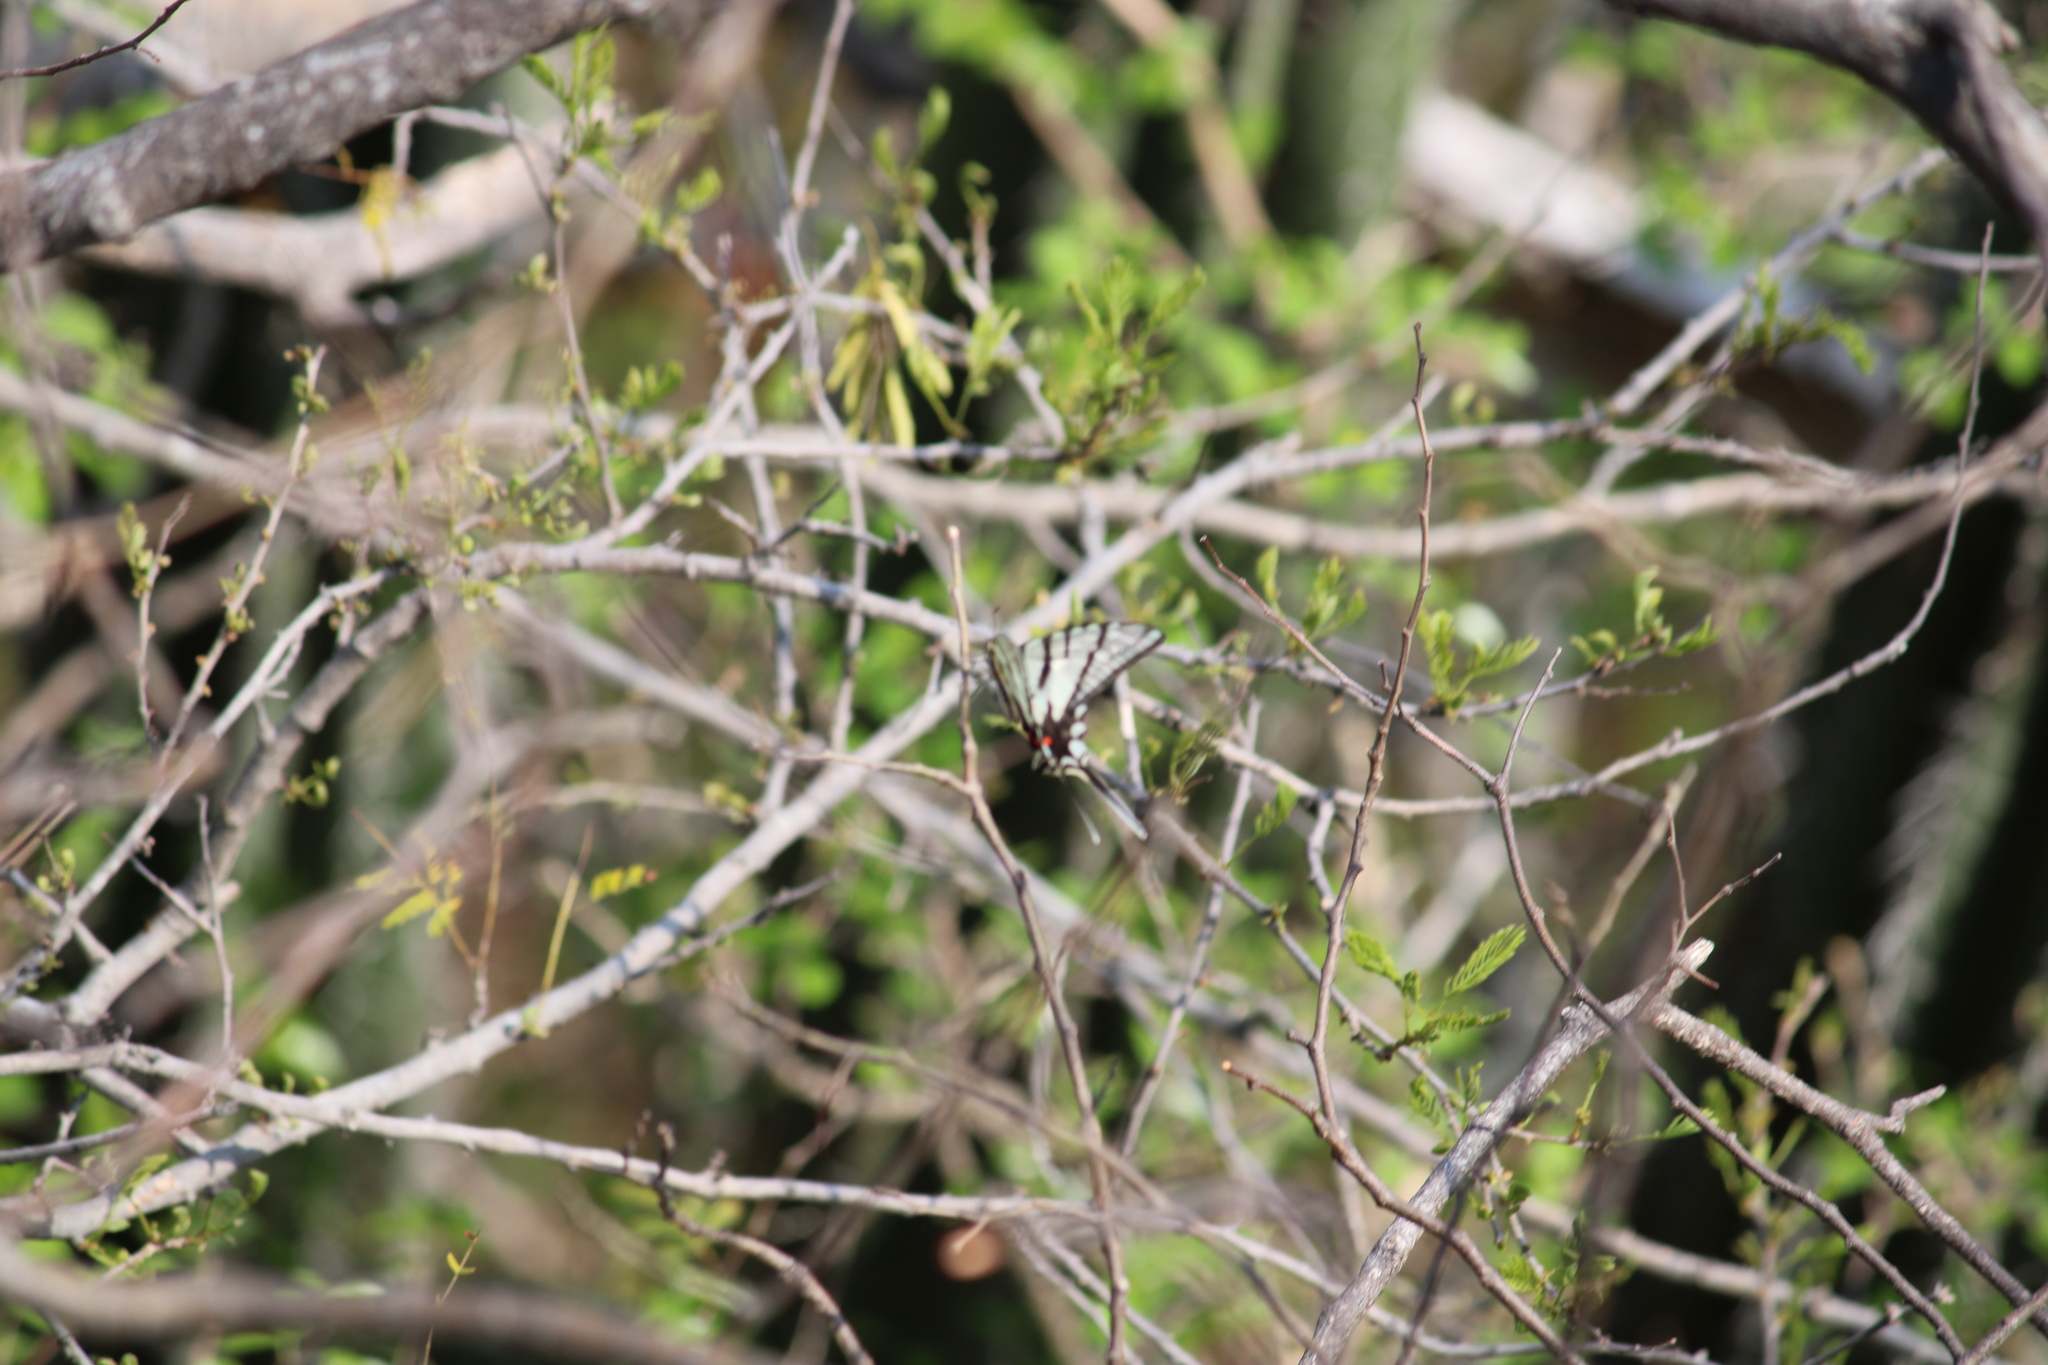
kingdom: Animalia
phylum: Arthropoda
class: Insecta
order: Lepidoptera
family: Papilionidae
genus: Protographium
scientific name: Protographium epidaus
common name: Mexican kite swallowtail
